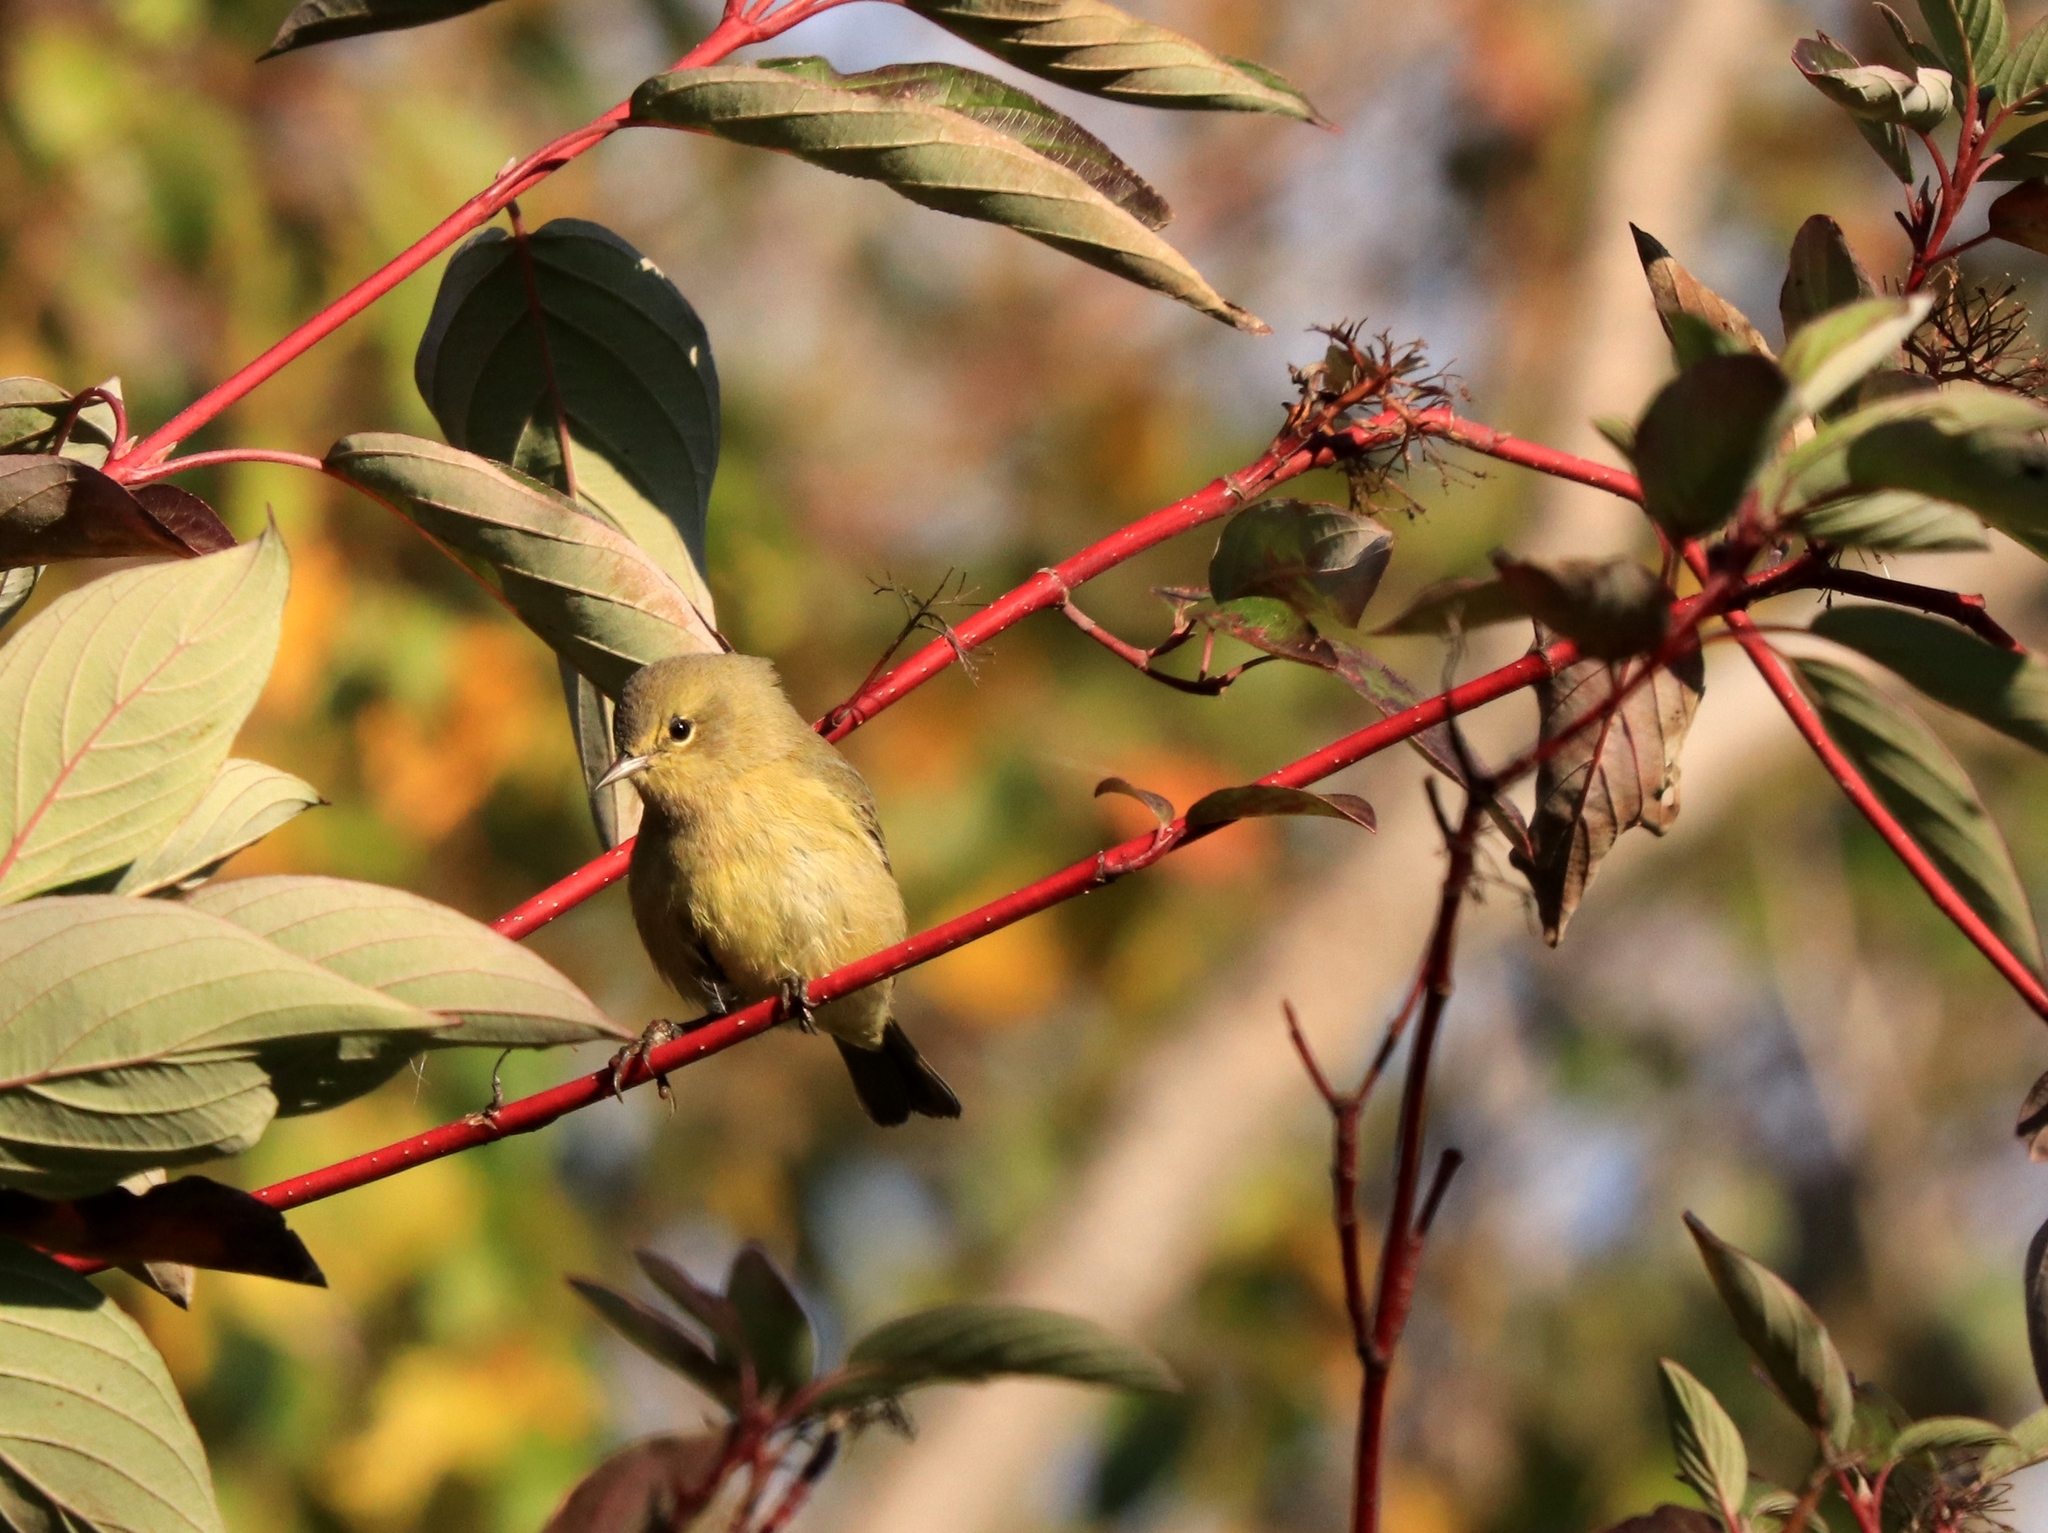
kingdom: Animalia
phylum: Chordata
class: Aves
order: Passeriformes
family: Parulidae
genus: Leiothlypis
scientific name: Leiothlypis celata
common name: Orange-crowned warbler
